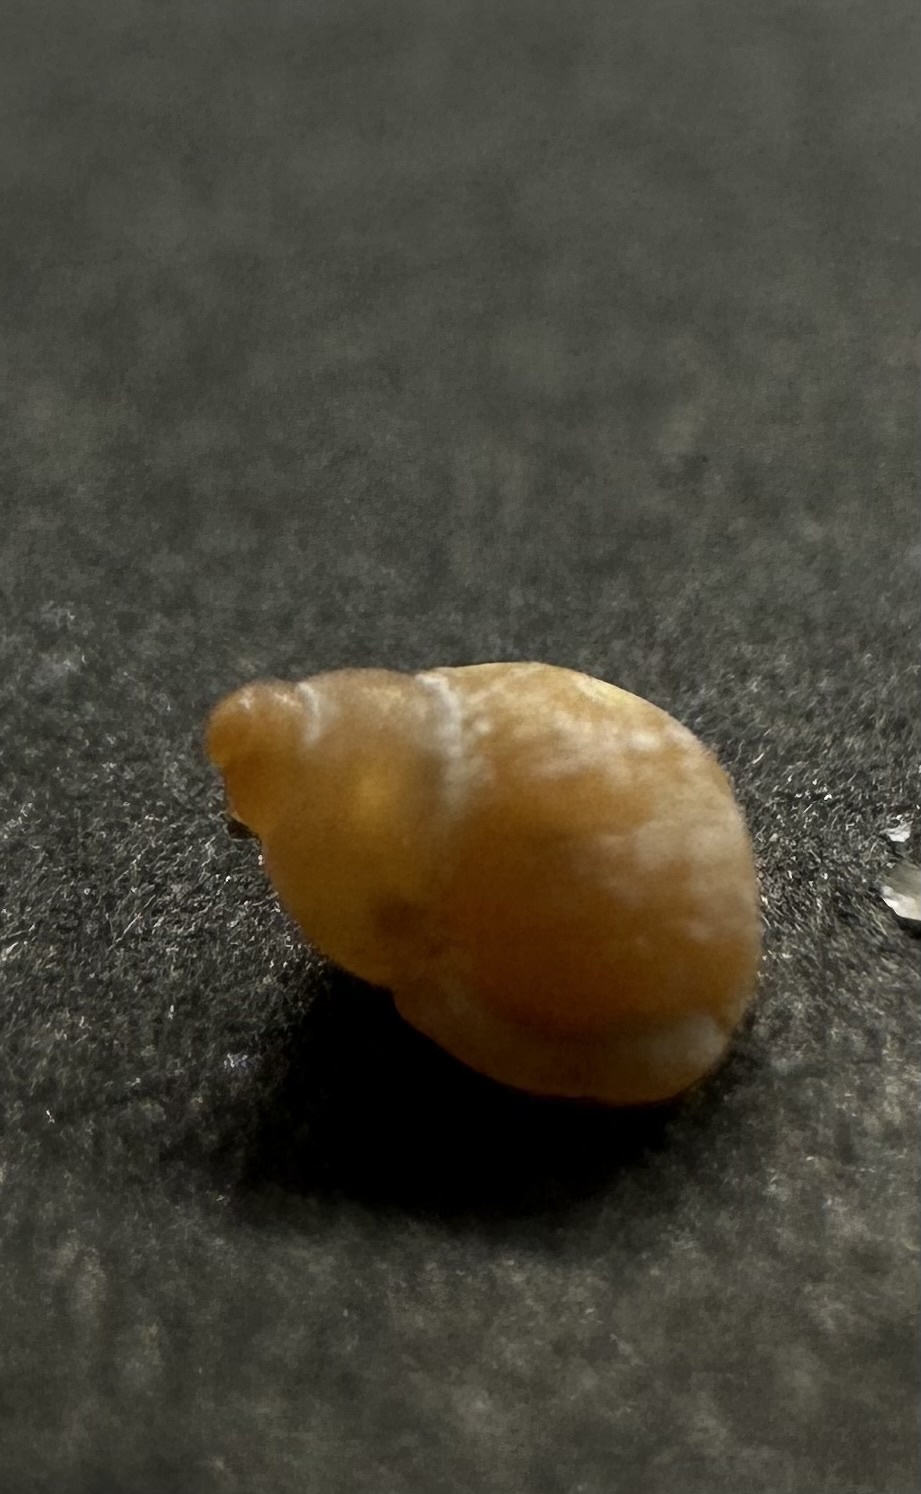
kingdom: Animalia
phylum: Mollusca
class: Gastropoda
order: Littorinimorpha
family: Littorinidae
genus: Lacuna
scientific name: Lacuna vincta
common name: Banded chink shell
